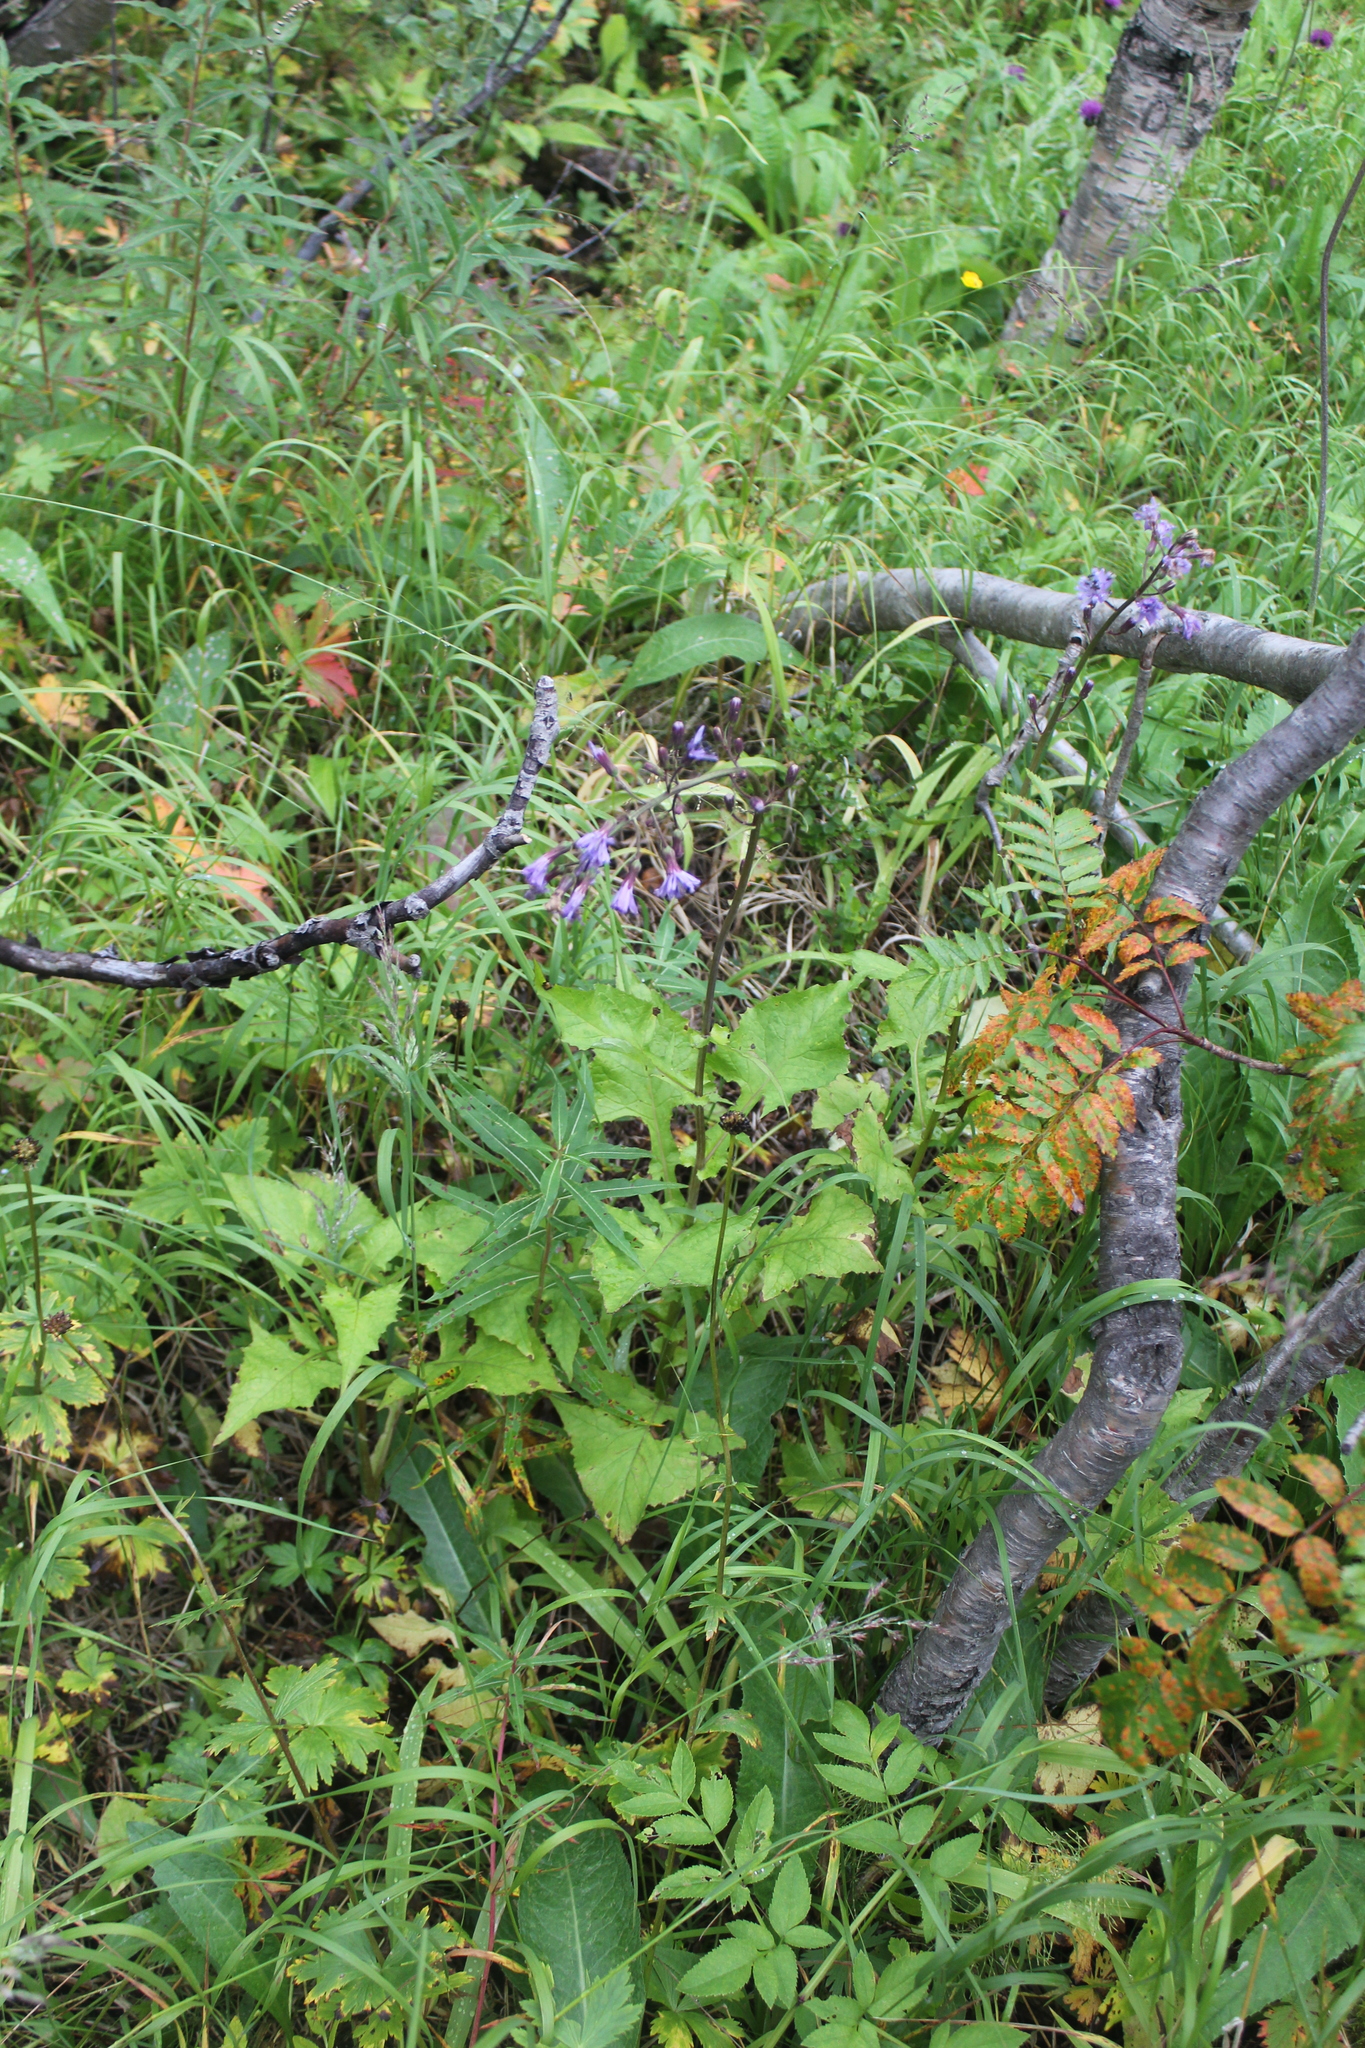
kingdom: Plantae
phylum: Tracheophyta
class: Magnoliopsida
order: Asterales
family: Asteraceae
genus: Cicerbita
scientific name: Cicerbita alpina
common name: Alpine blue-sow-thistle
